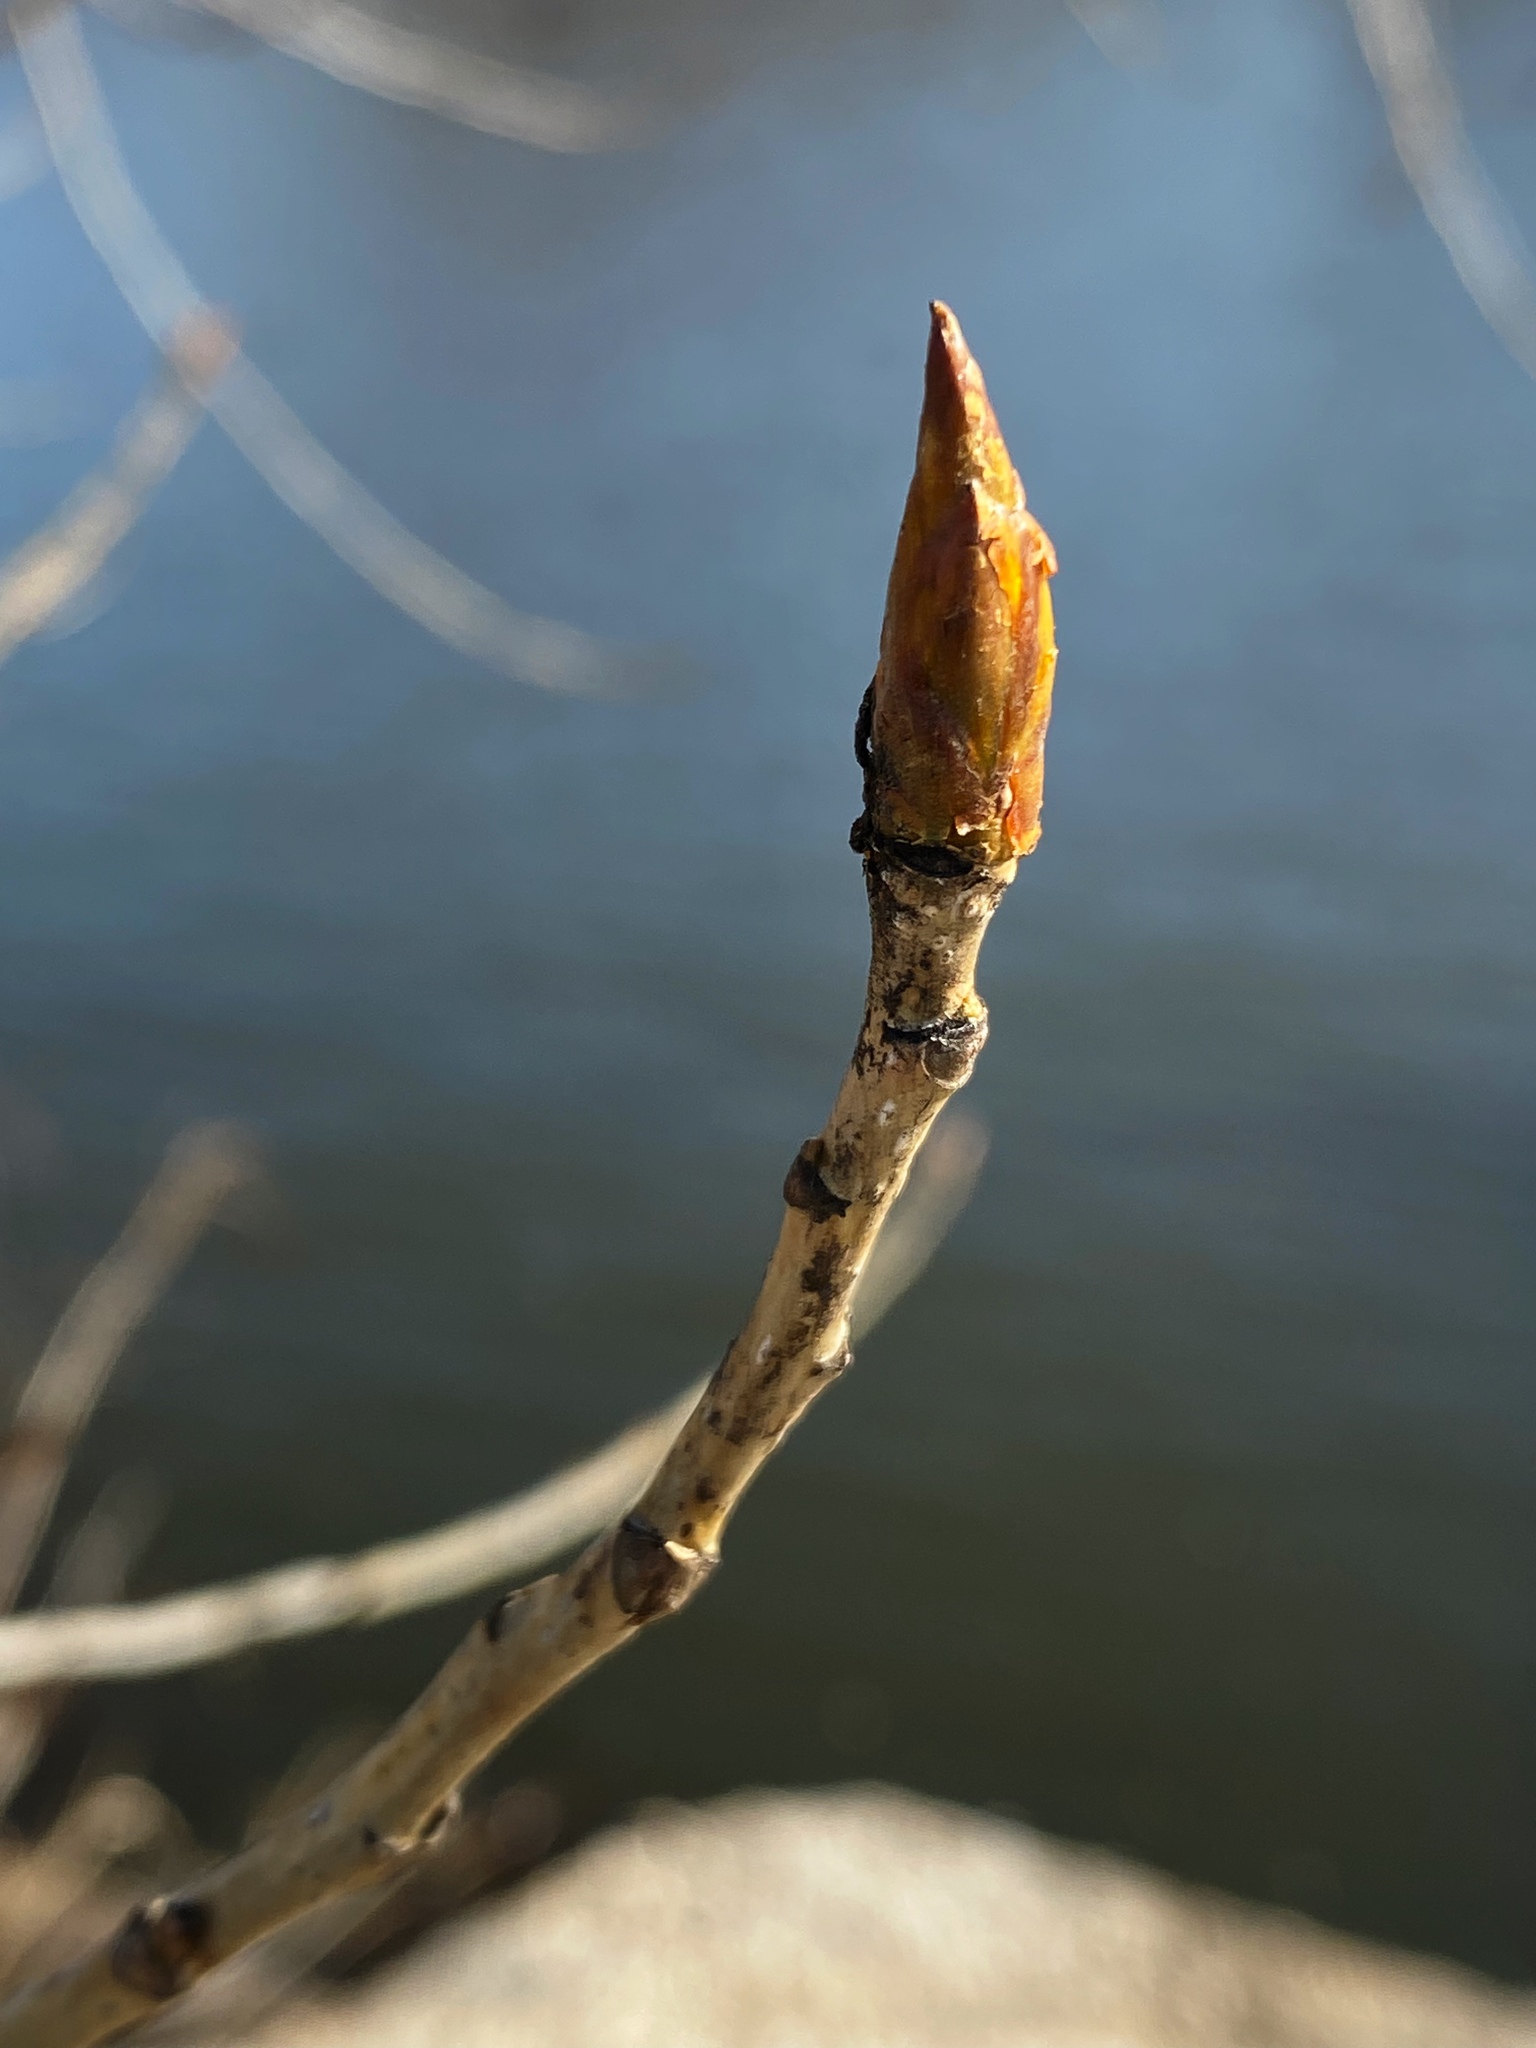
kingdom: Plantae
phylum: Tracheophyta
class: Magnoliopsida
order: Malpighiales
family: Salicaceae
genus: Populus
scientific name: Populus deltoides
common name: Eastern cottonwood
